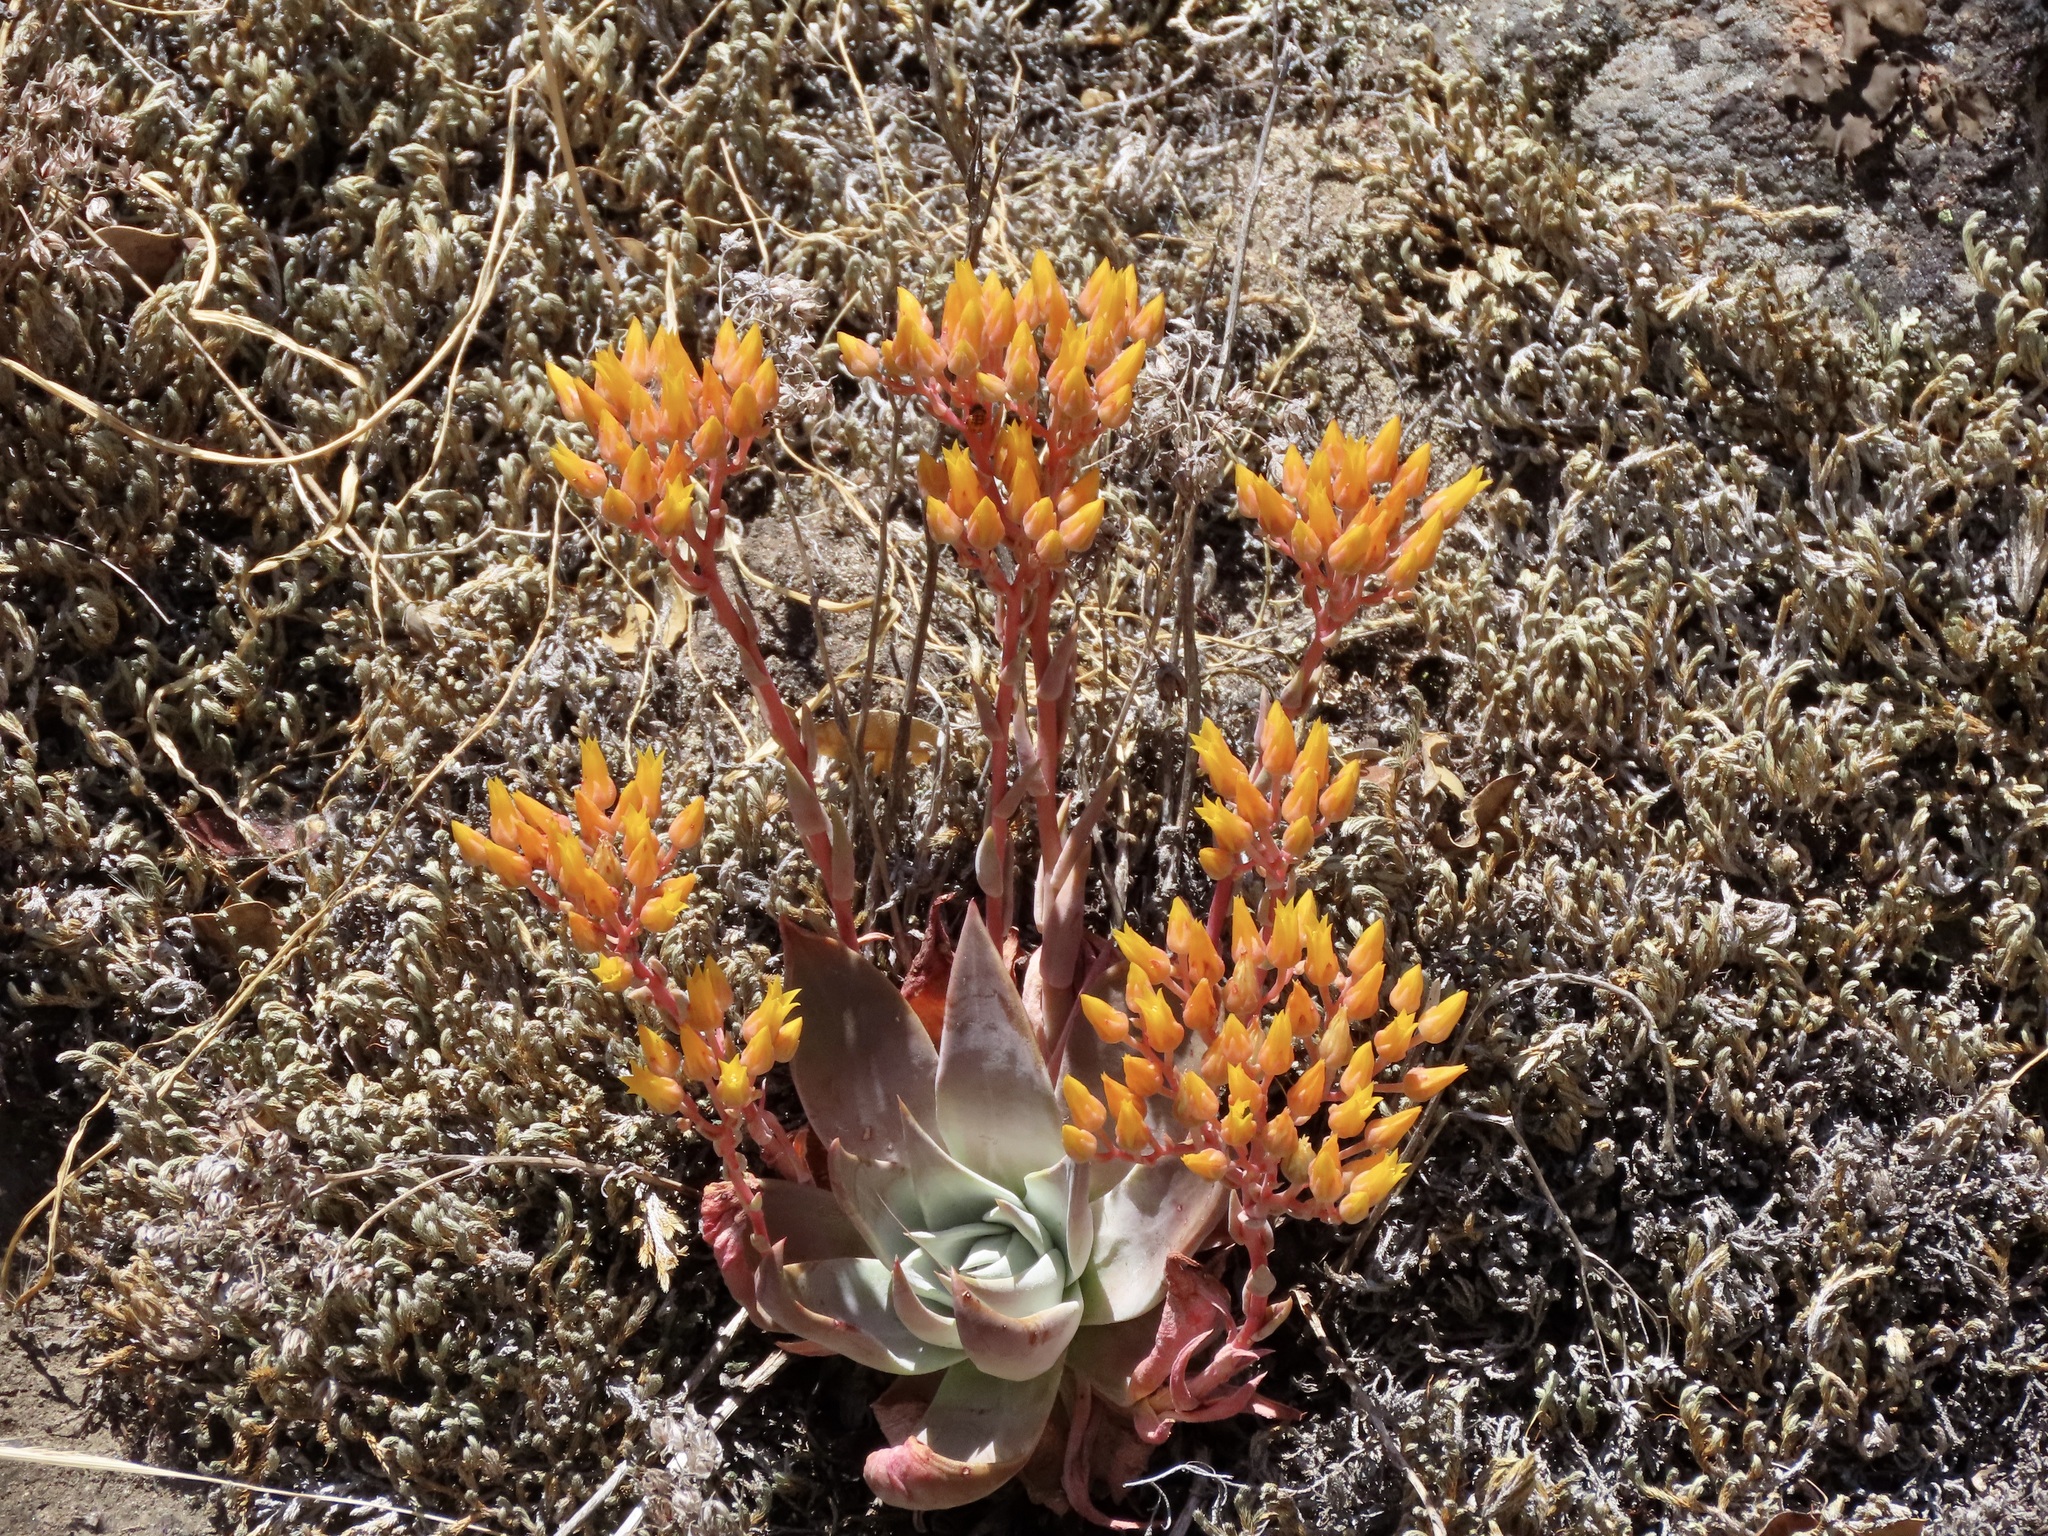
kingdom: Plantae
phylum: Tracheophyta
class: Magnoliopsida
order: Saxifragales
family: Crassulaceae
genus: Dudleya
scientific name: Dudleya cymosa
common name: Canyon dudleya
